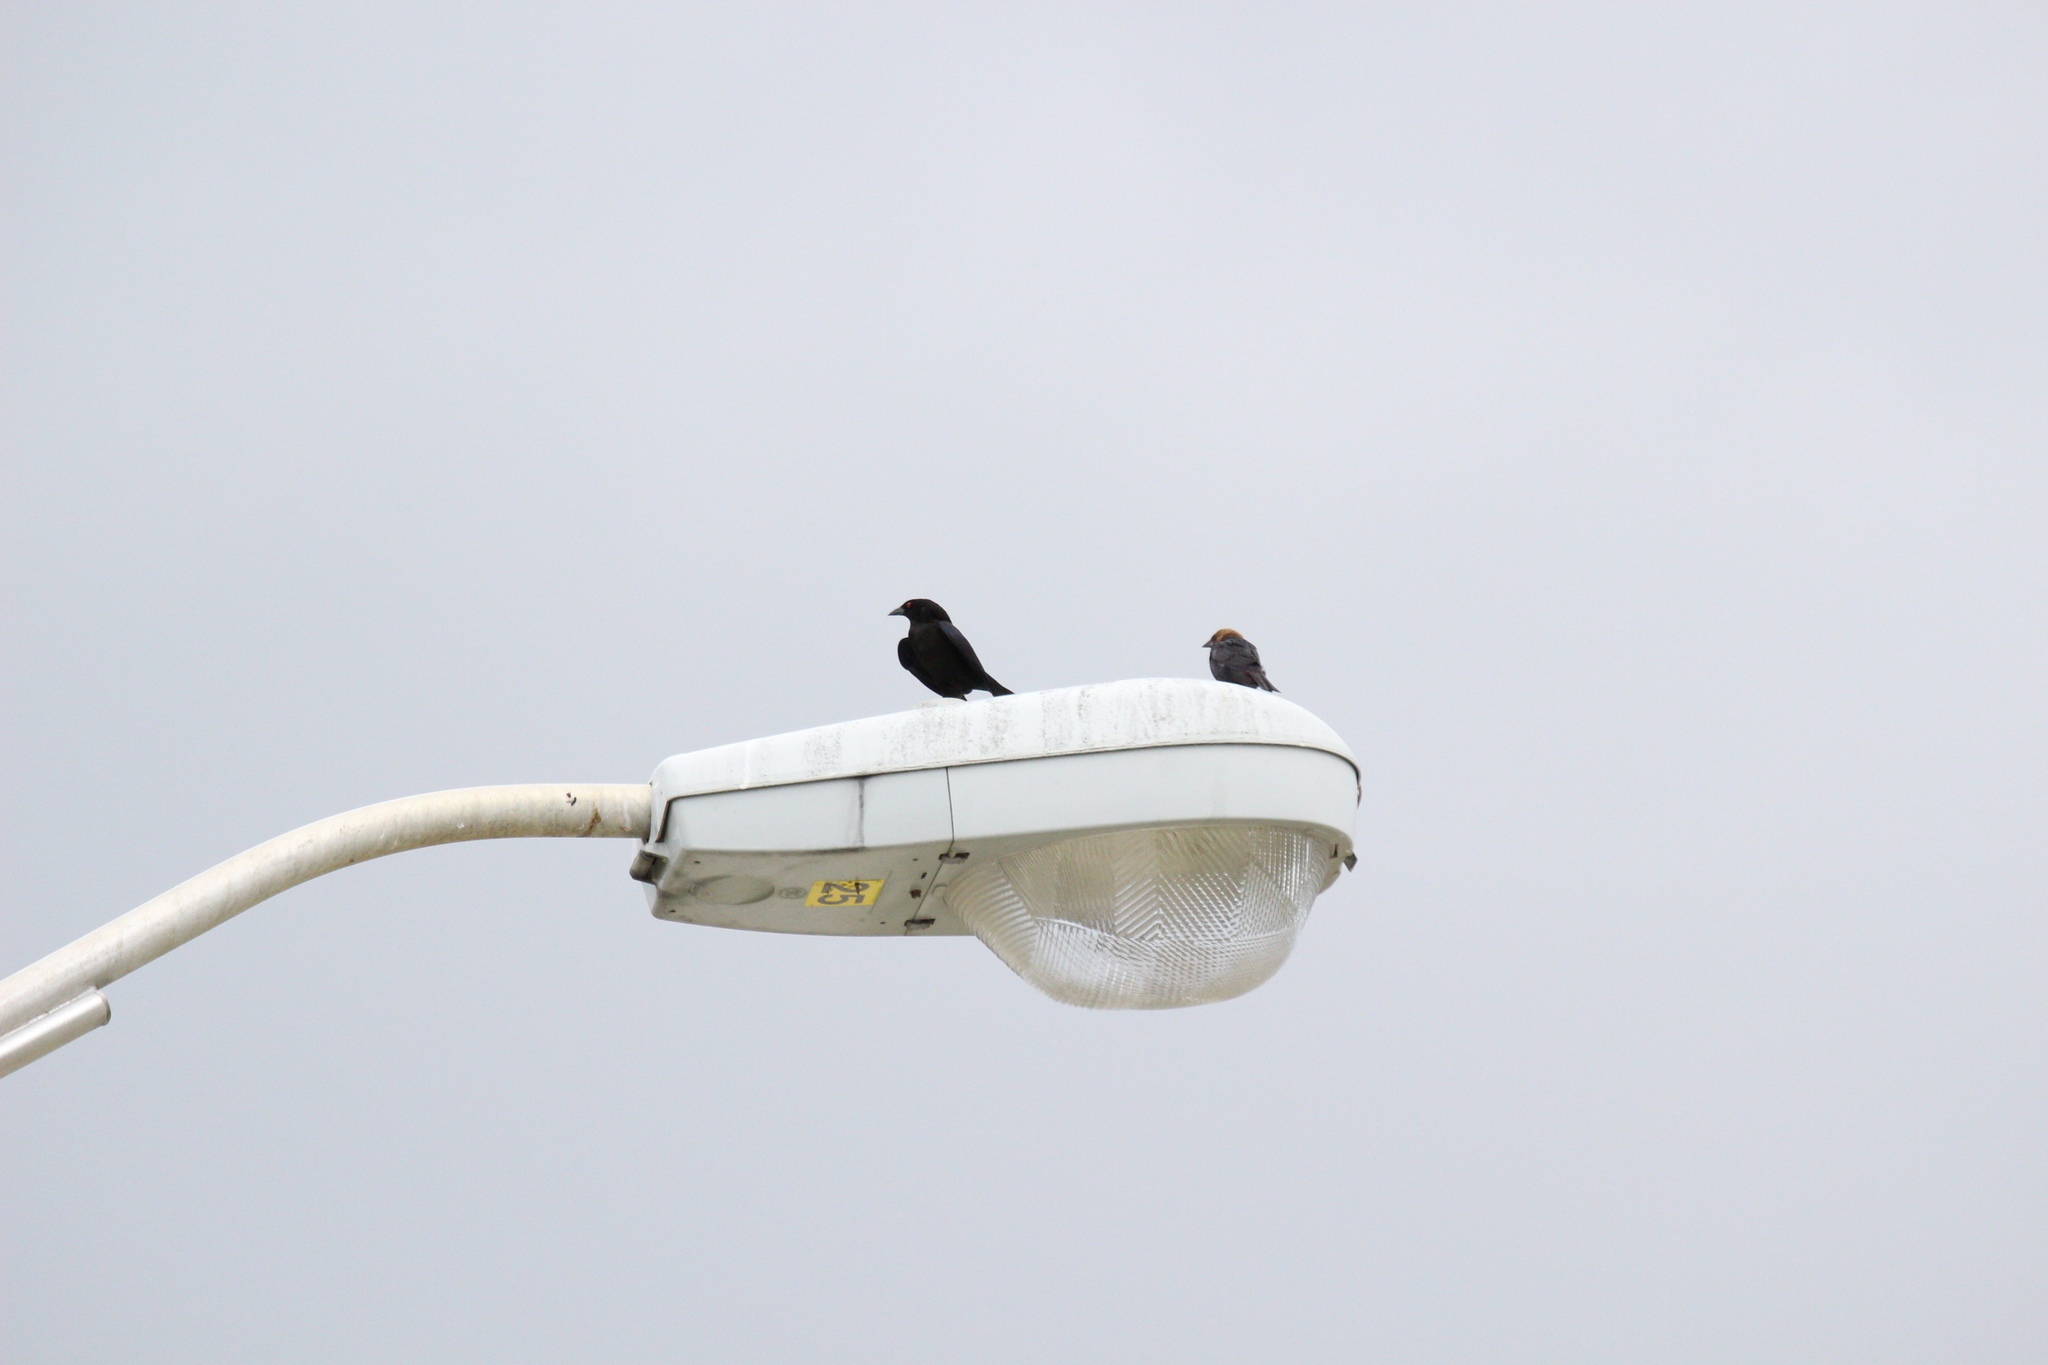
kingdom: Animalia
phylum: Chordata
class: Aves
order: Passeriformes
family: Icteridae
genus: Molothrus
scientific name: Molothrus aeneus
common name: Bronzed cowbird
